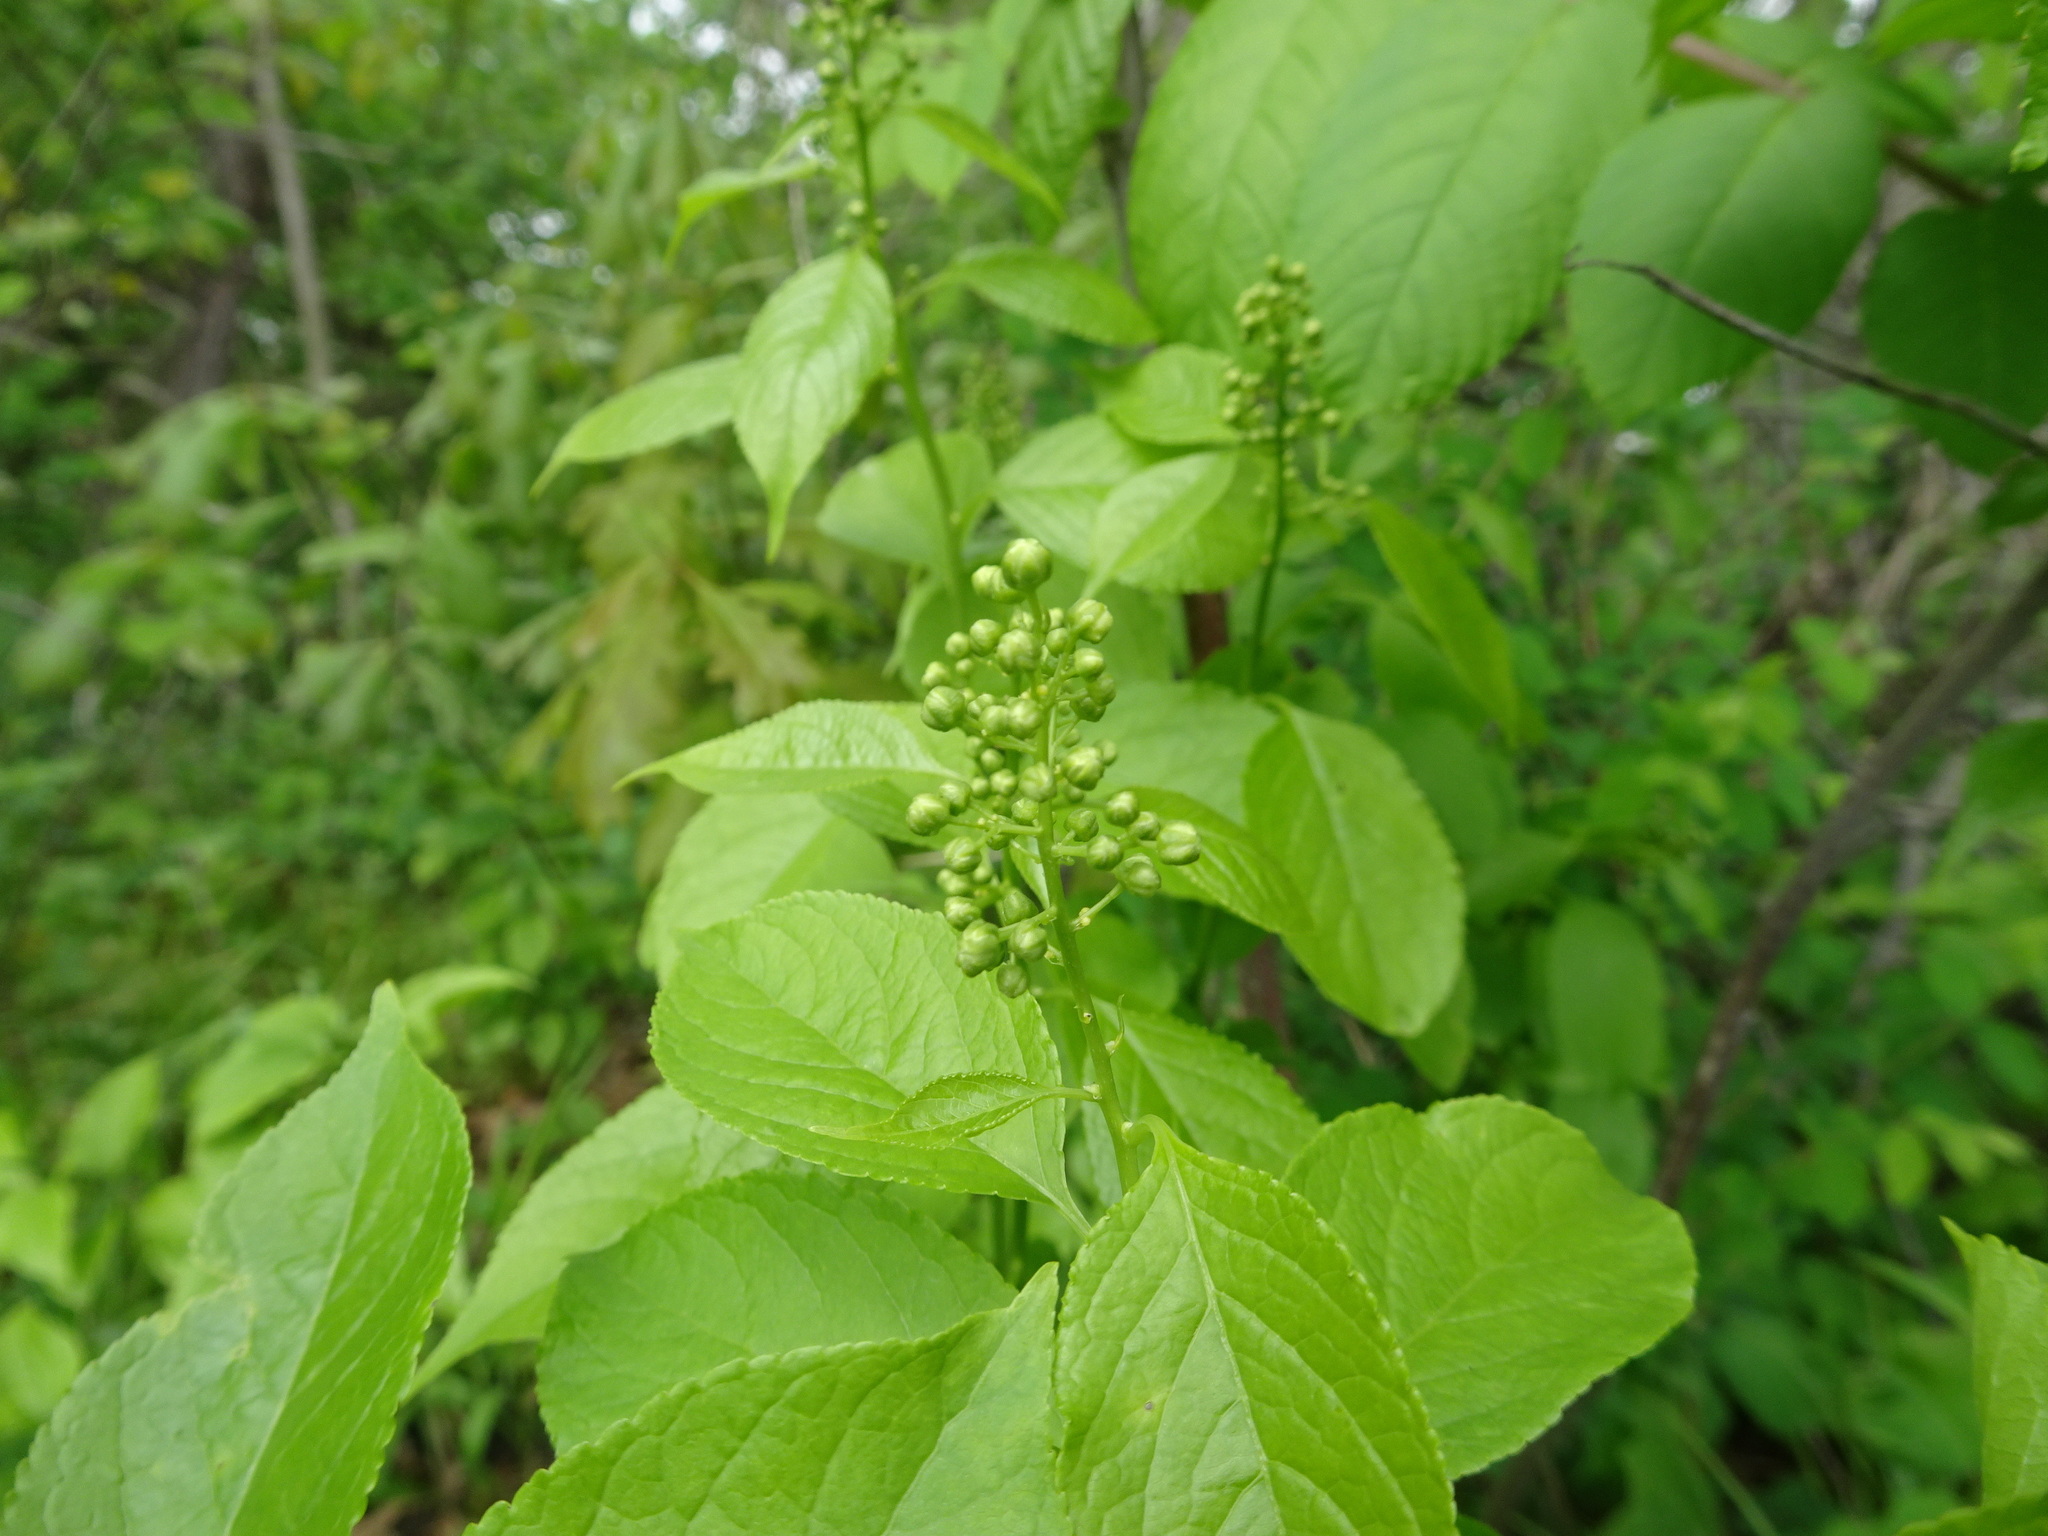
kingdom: Plantae
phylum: Tracheophyta
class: Magnoliopsida
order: Celastrales
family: Celastraceae
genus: Celastrus
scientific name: Celastrus scandens
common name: American bittersweet
